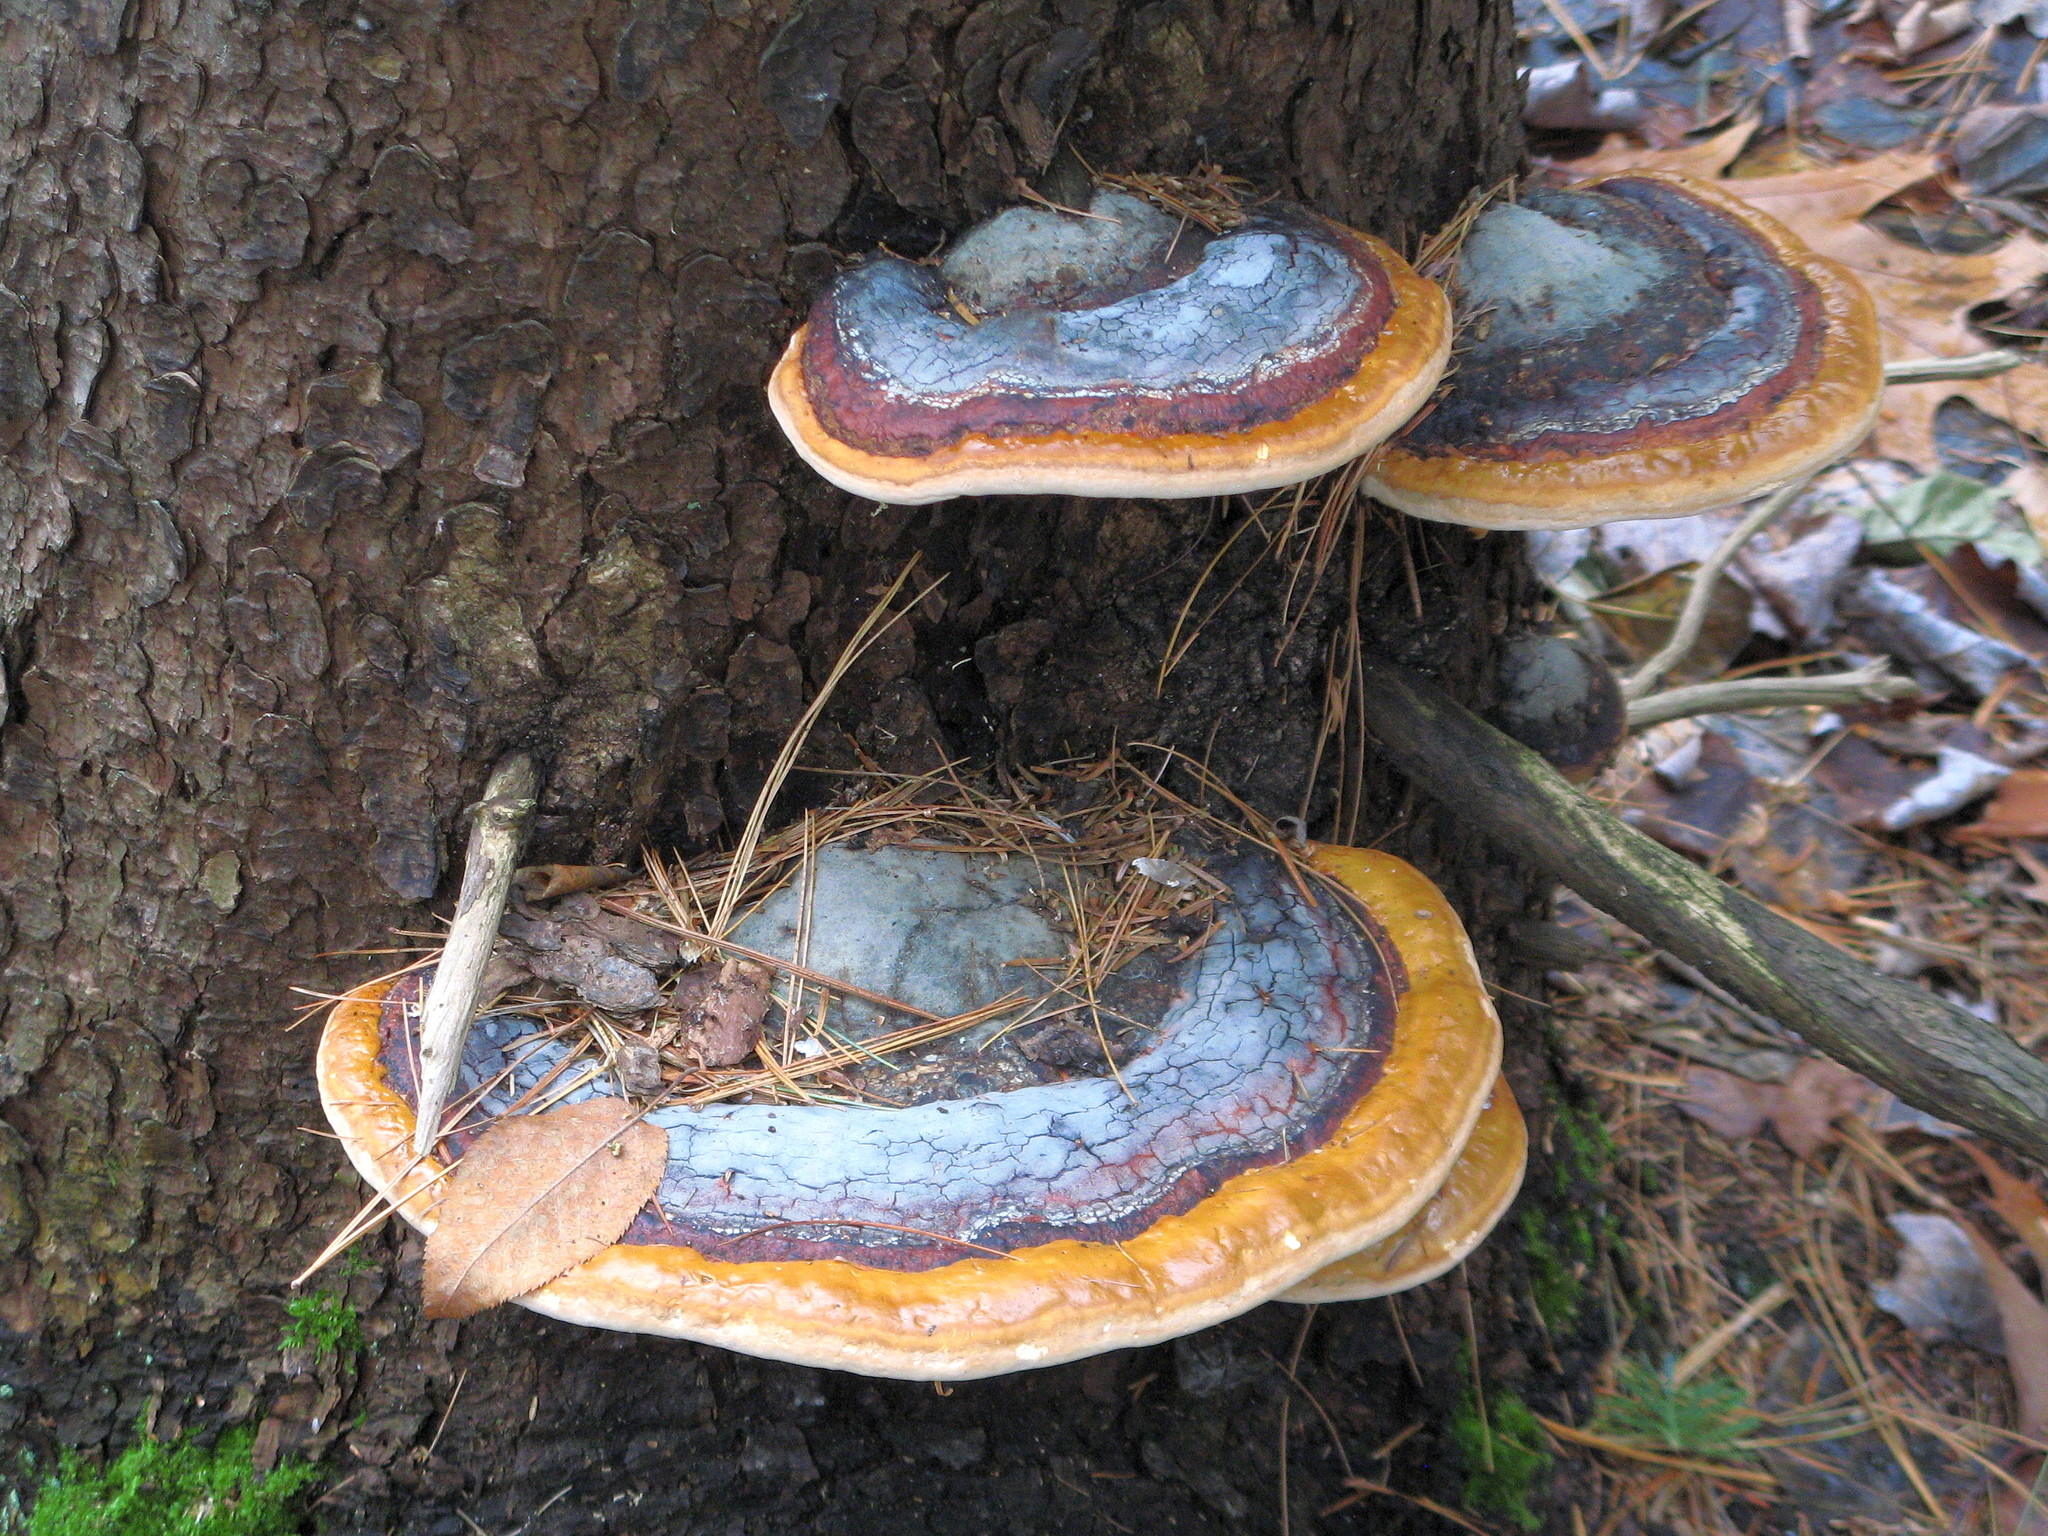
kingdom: Fungi
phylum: Basidiomycota
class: Agaricomycetes
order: Polyporales
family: Fomitopsidaceae
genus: Fomitopsis
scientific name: Fomitopsis mounceae
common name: Northern red belt
